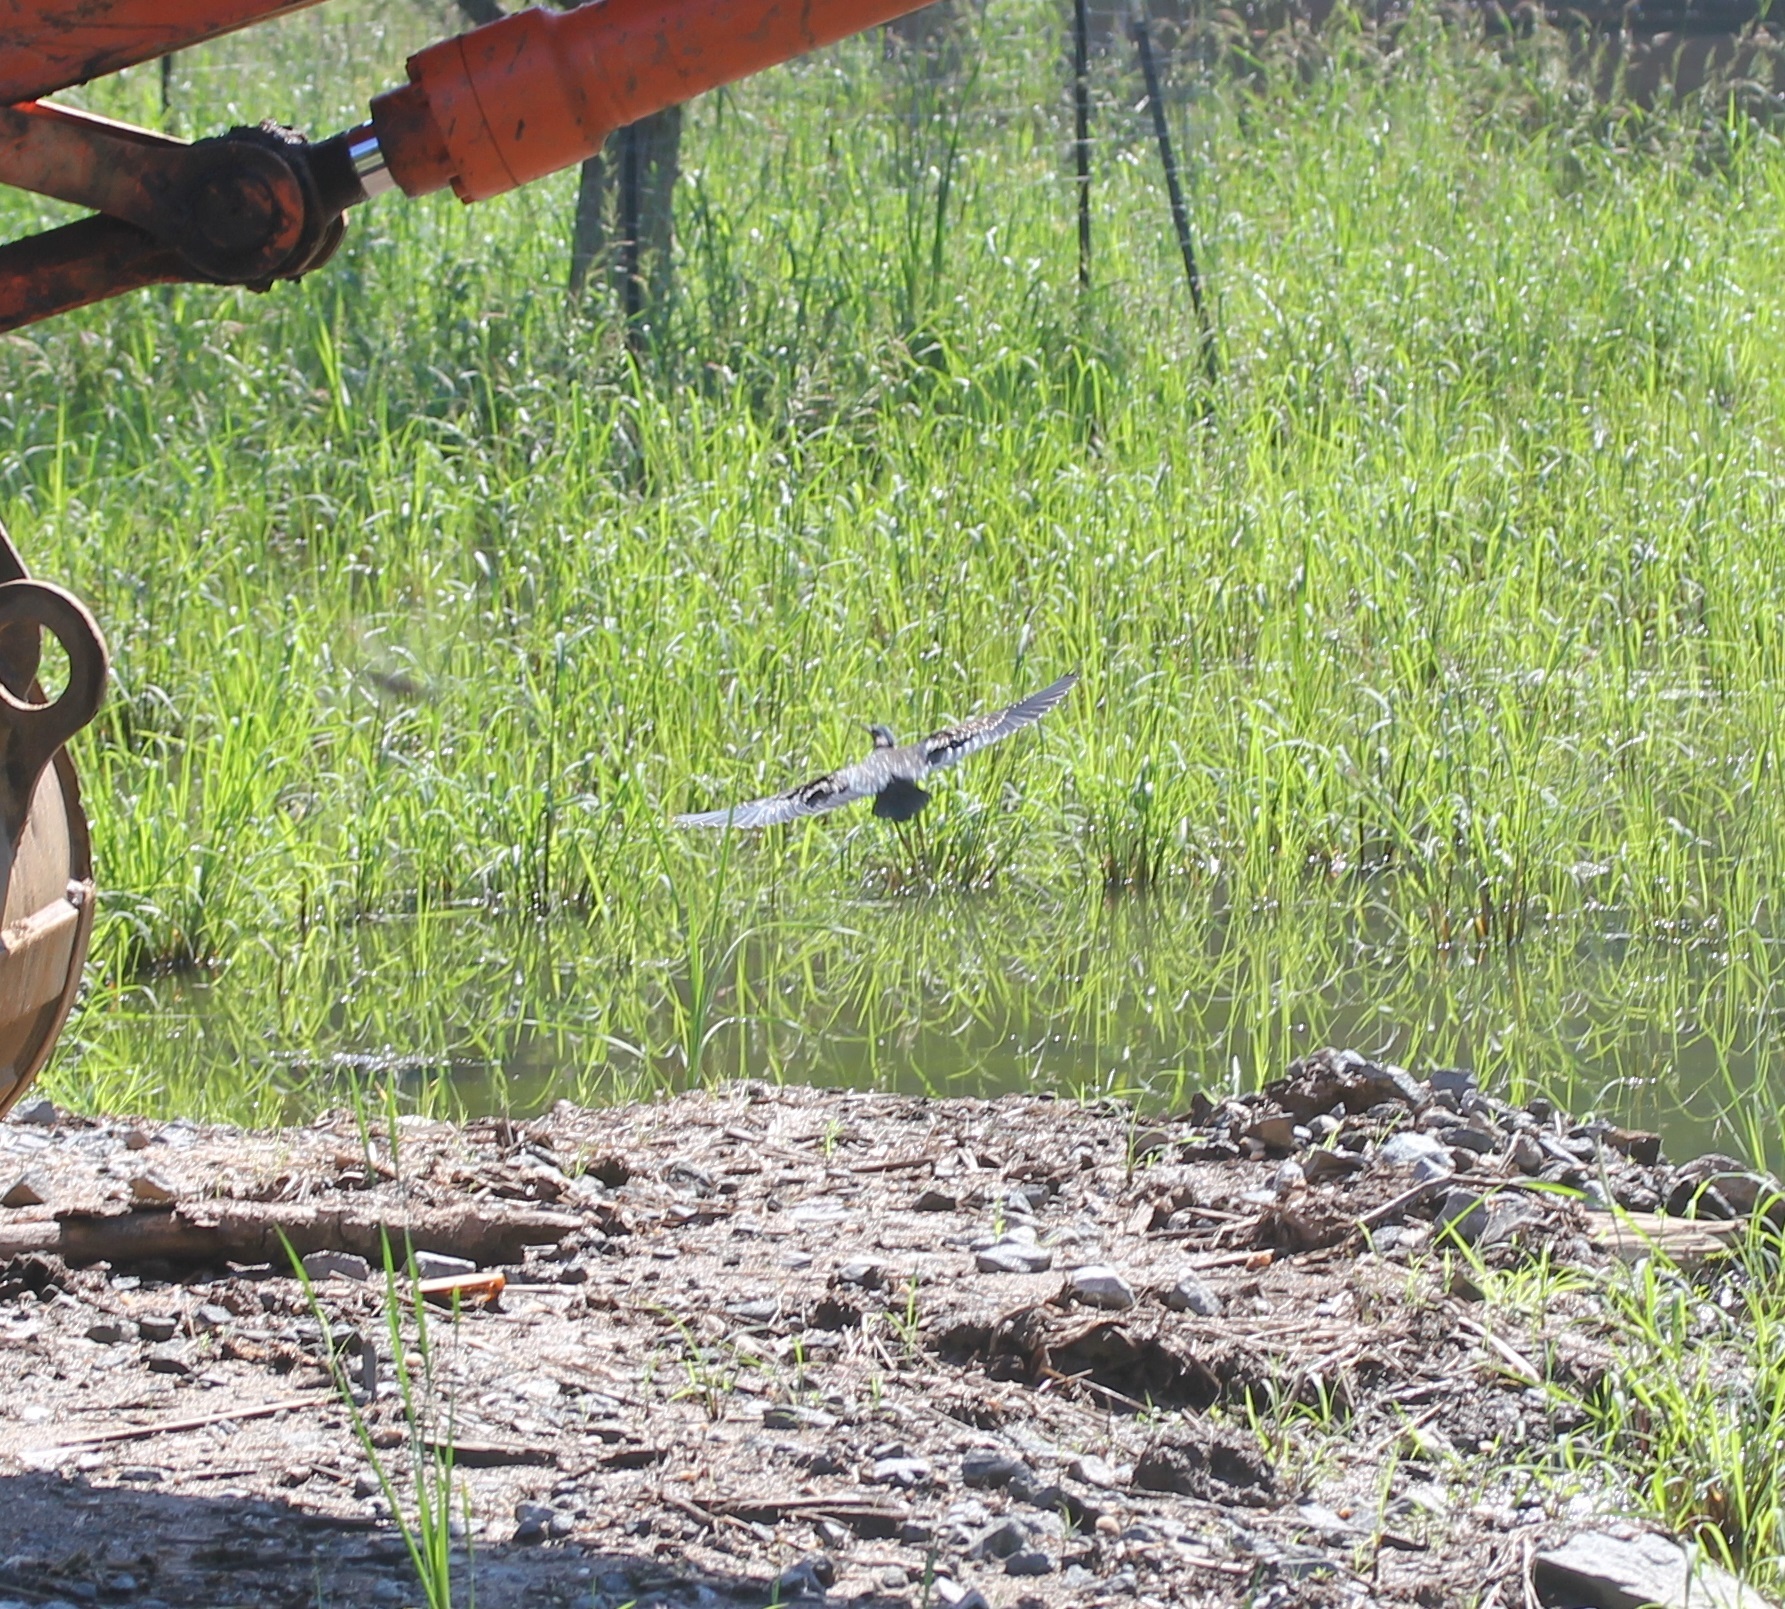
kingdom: Animalia
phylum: Chordata
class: Aves
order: Pelecaniformes
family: Ardeidae
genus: Butorides
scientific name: Butorides virescens
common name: Green heron
